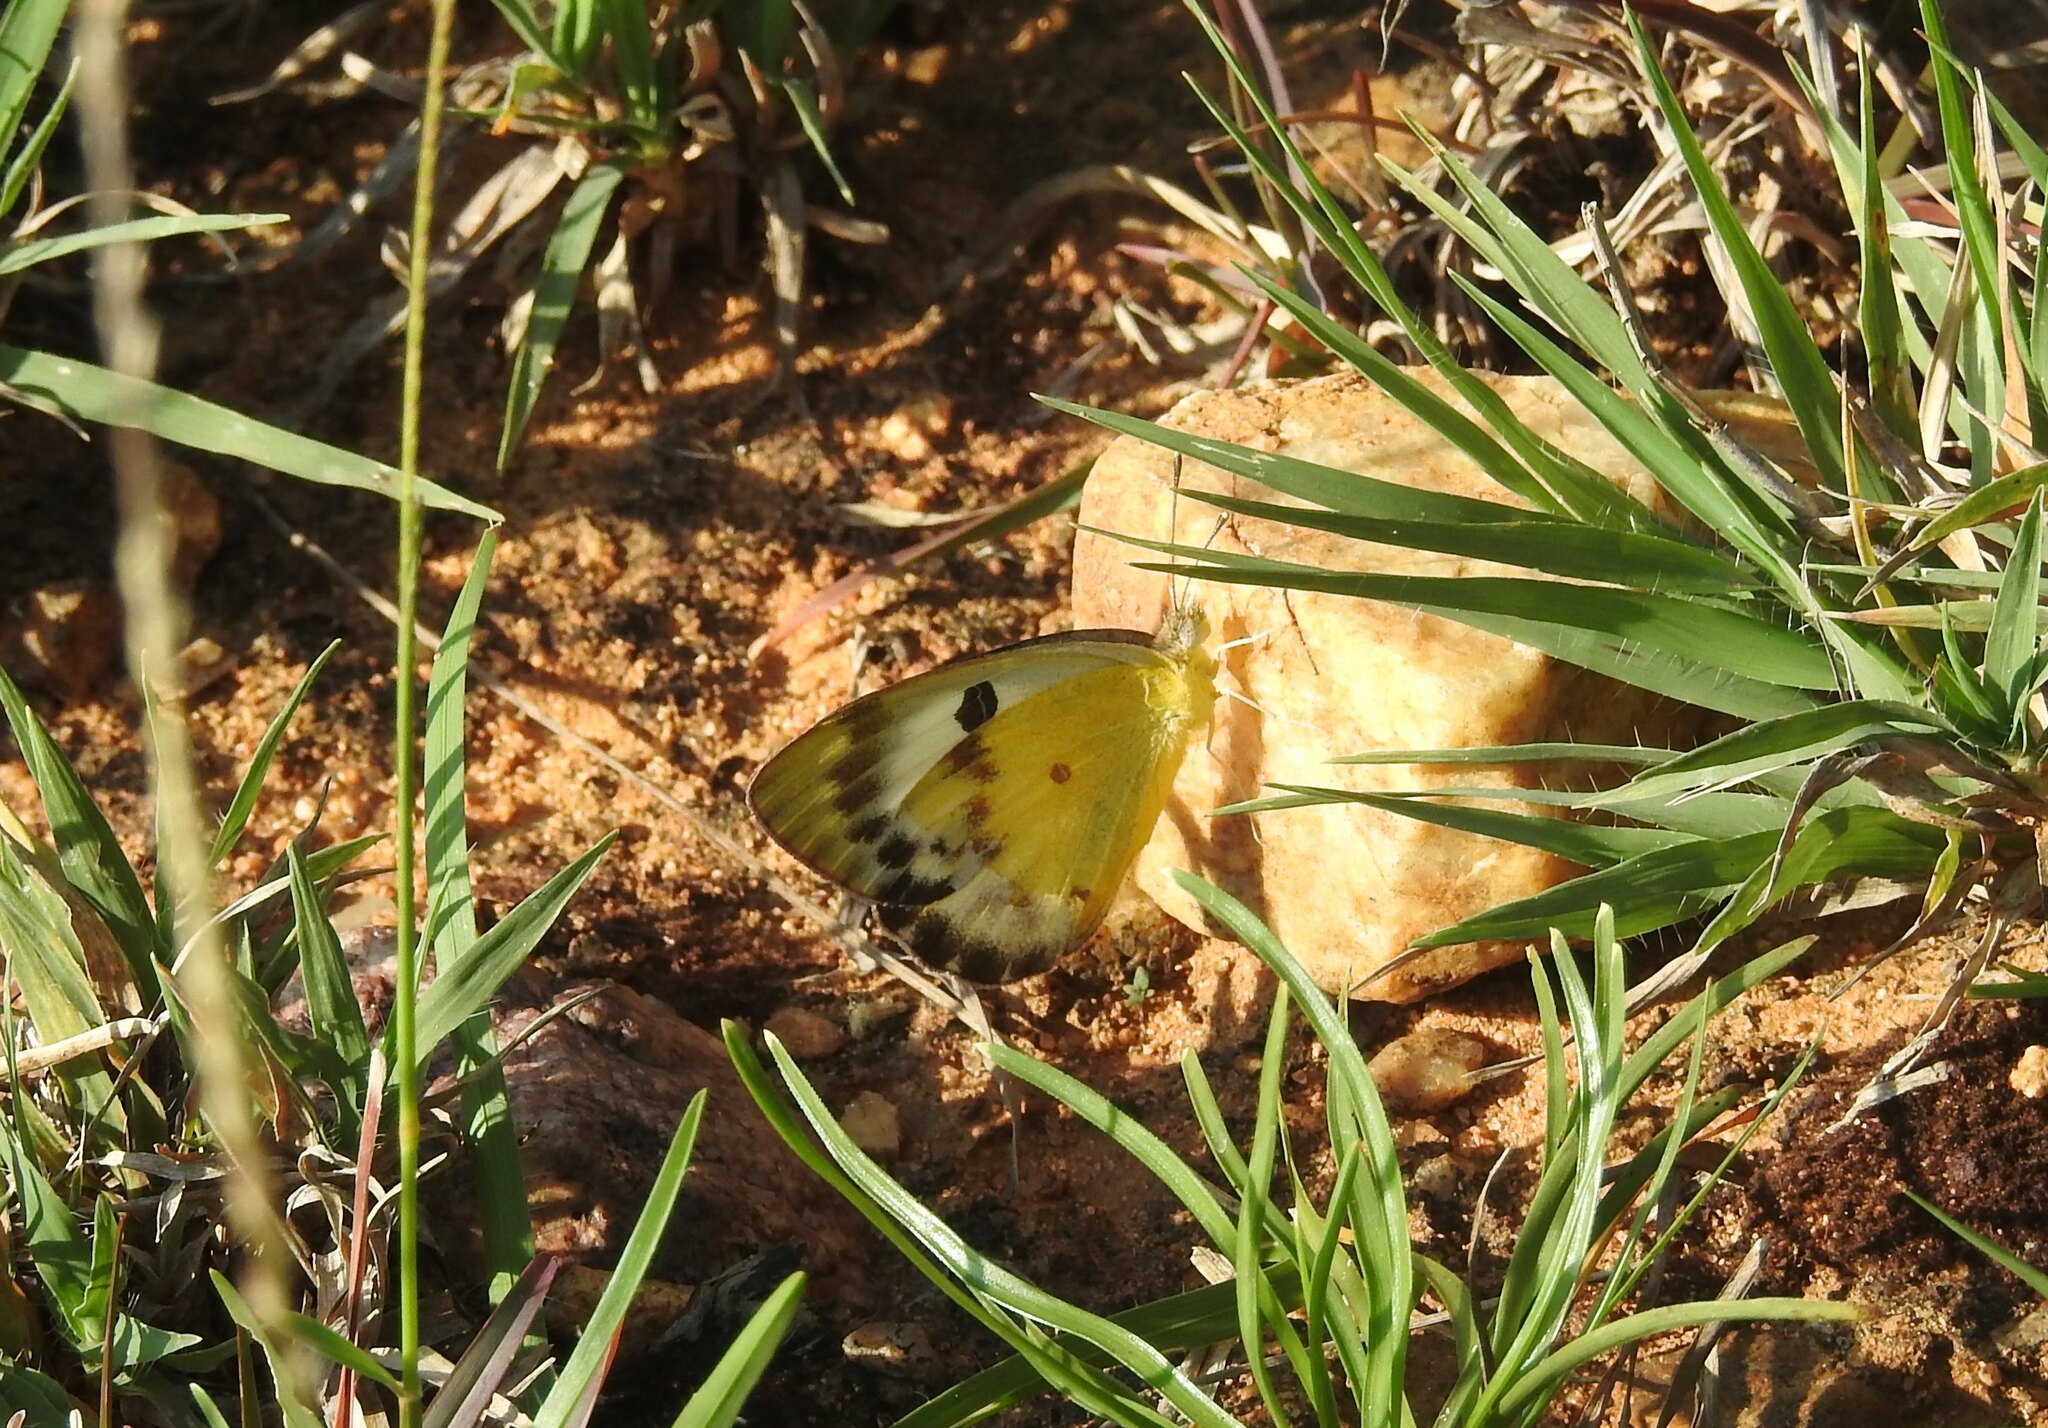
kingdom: Animalia
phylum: Arthropoda
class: Insecta
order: Lepidoptera
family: Pieridae
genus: Colotis
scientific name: Colotis fausta
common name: Large salmon arab
